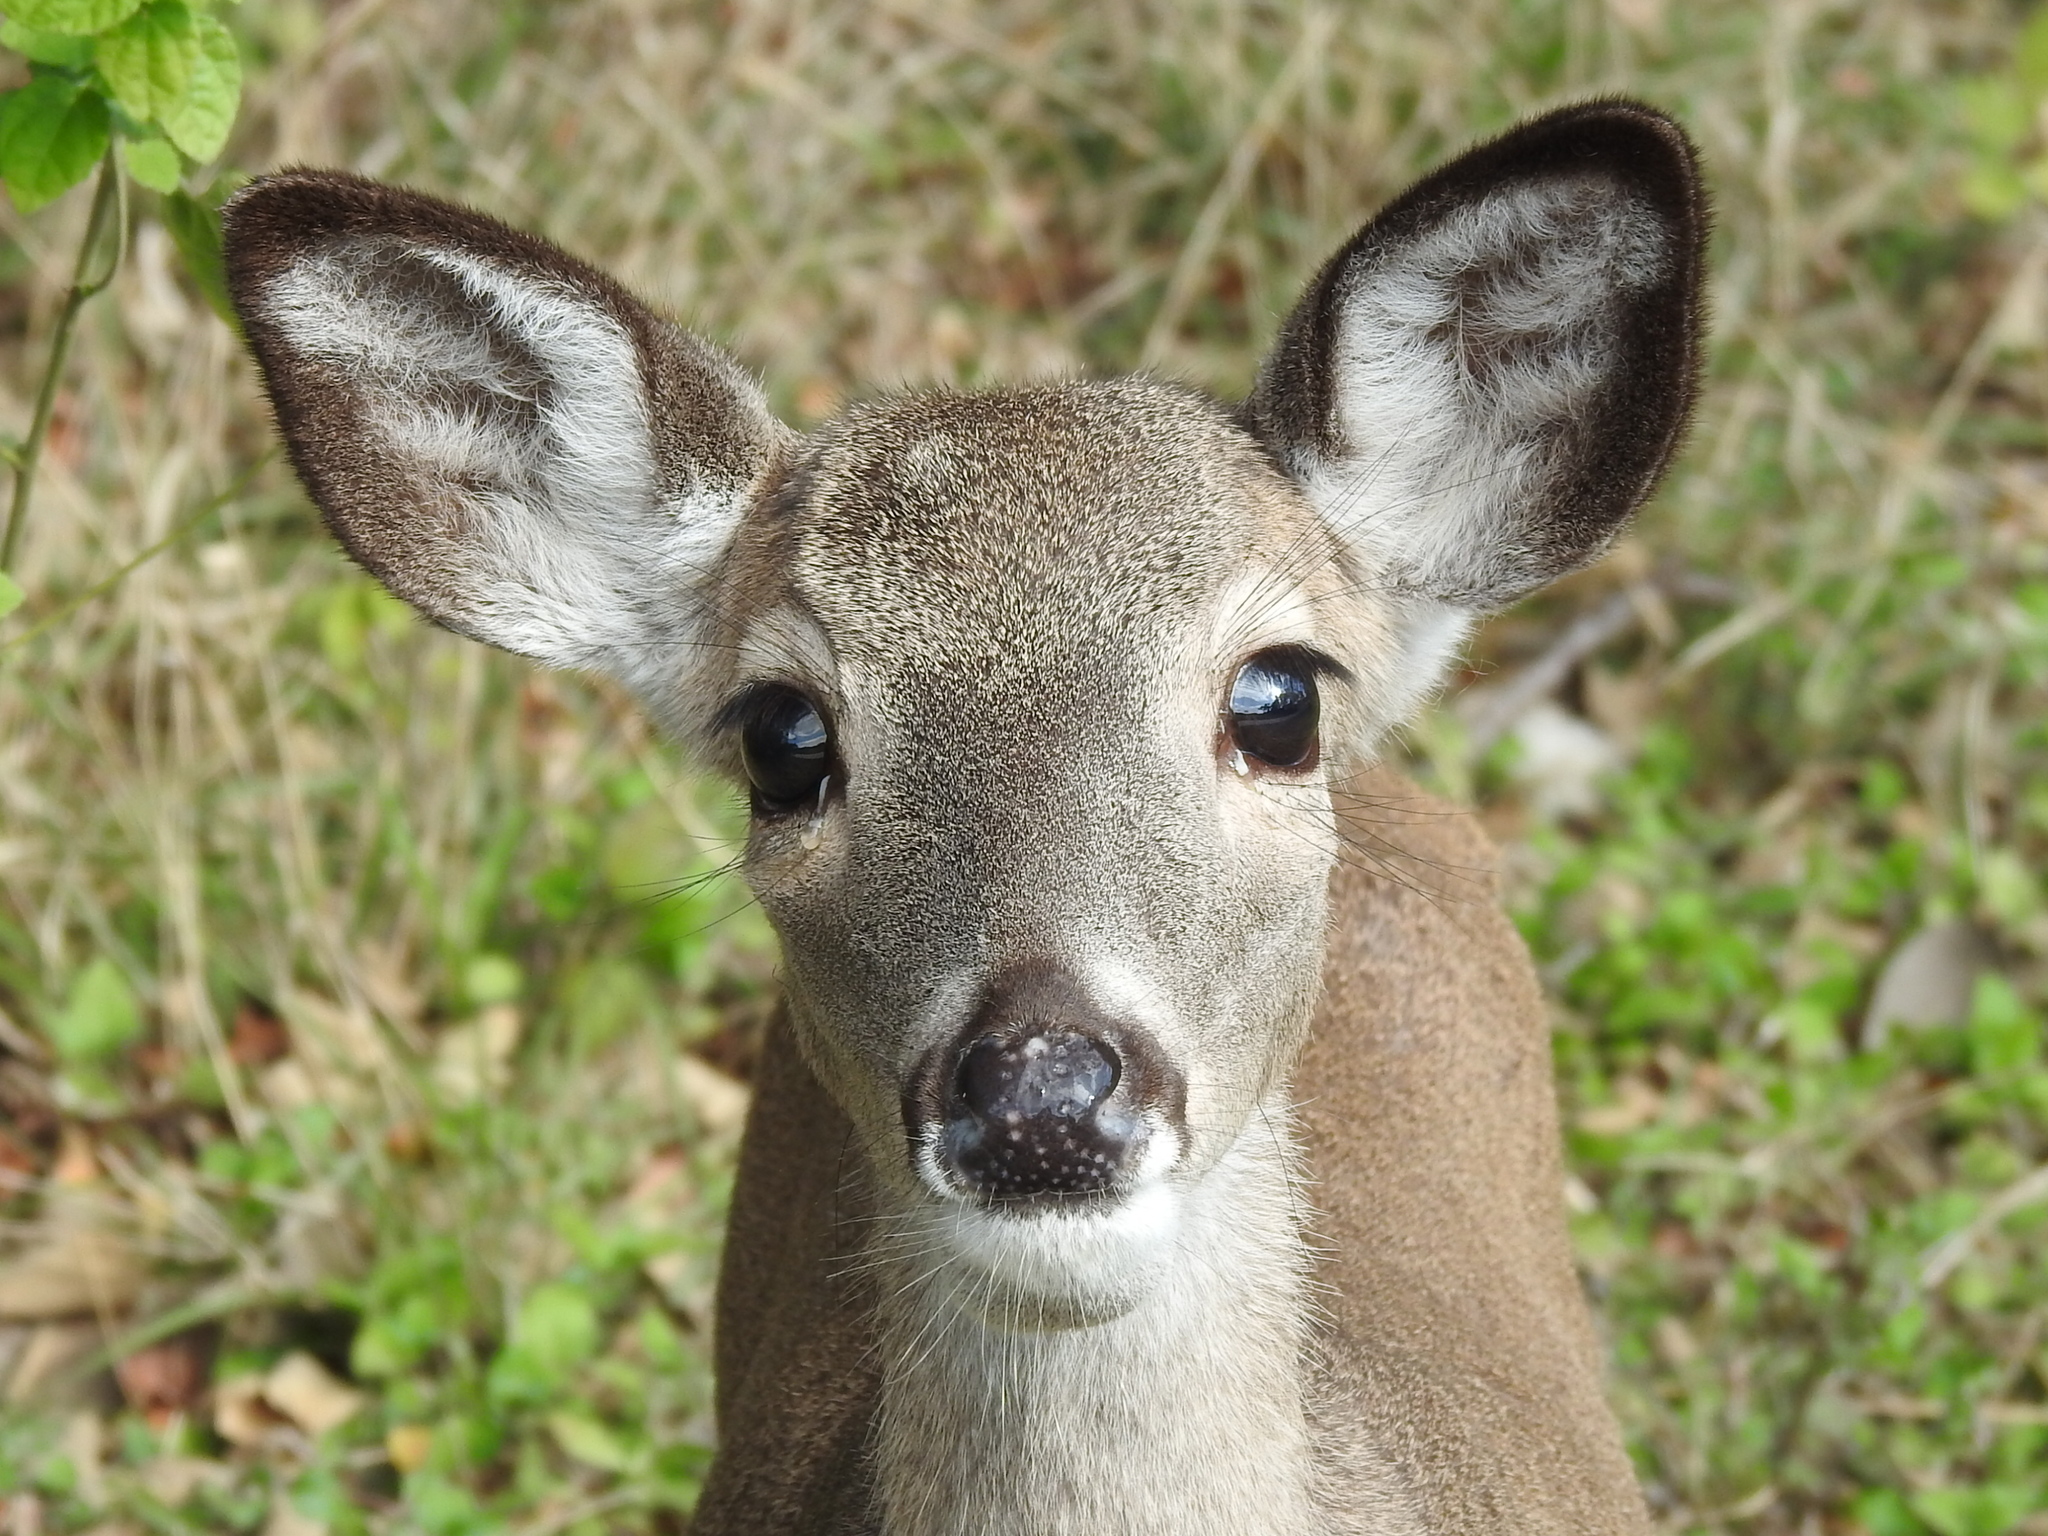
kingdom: Animalia
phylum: Chordata
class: Mammalia
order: Artiodactyla
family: Cervidae
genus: Odocoileus
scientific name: Odocoileus virginianus
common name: White-tailed deer
